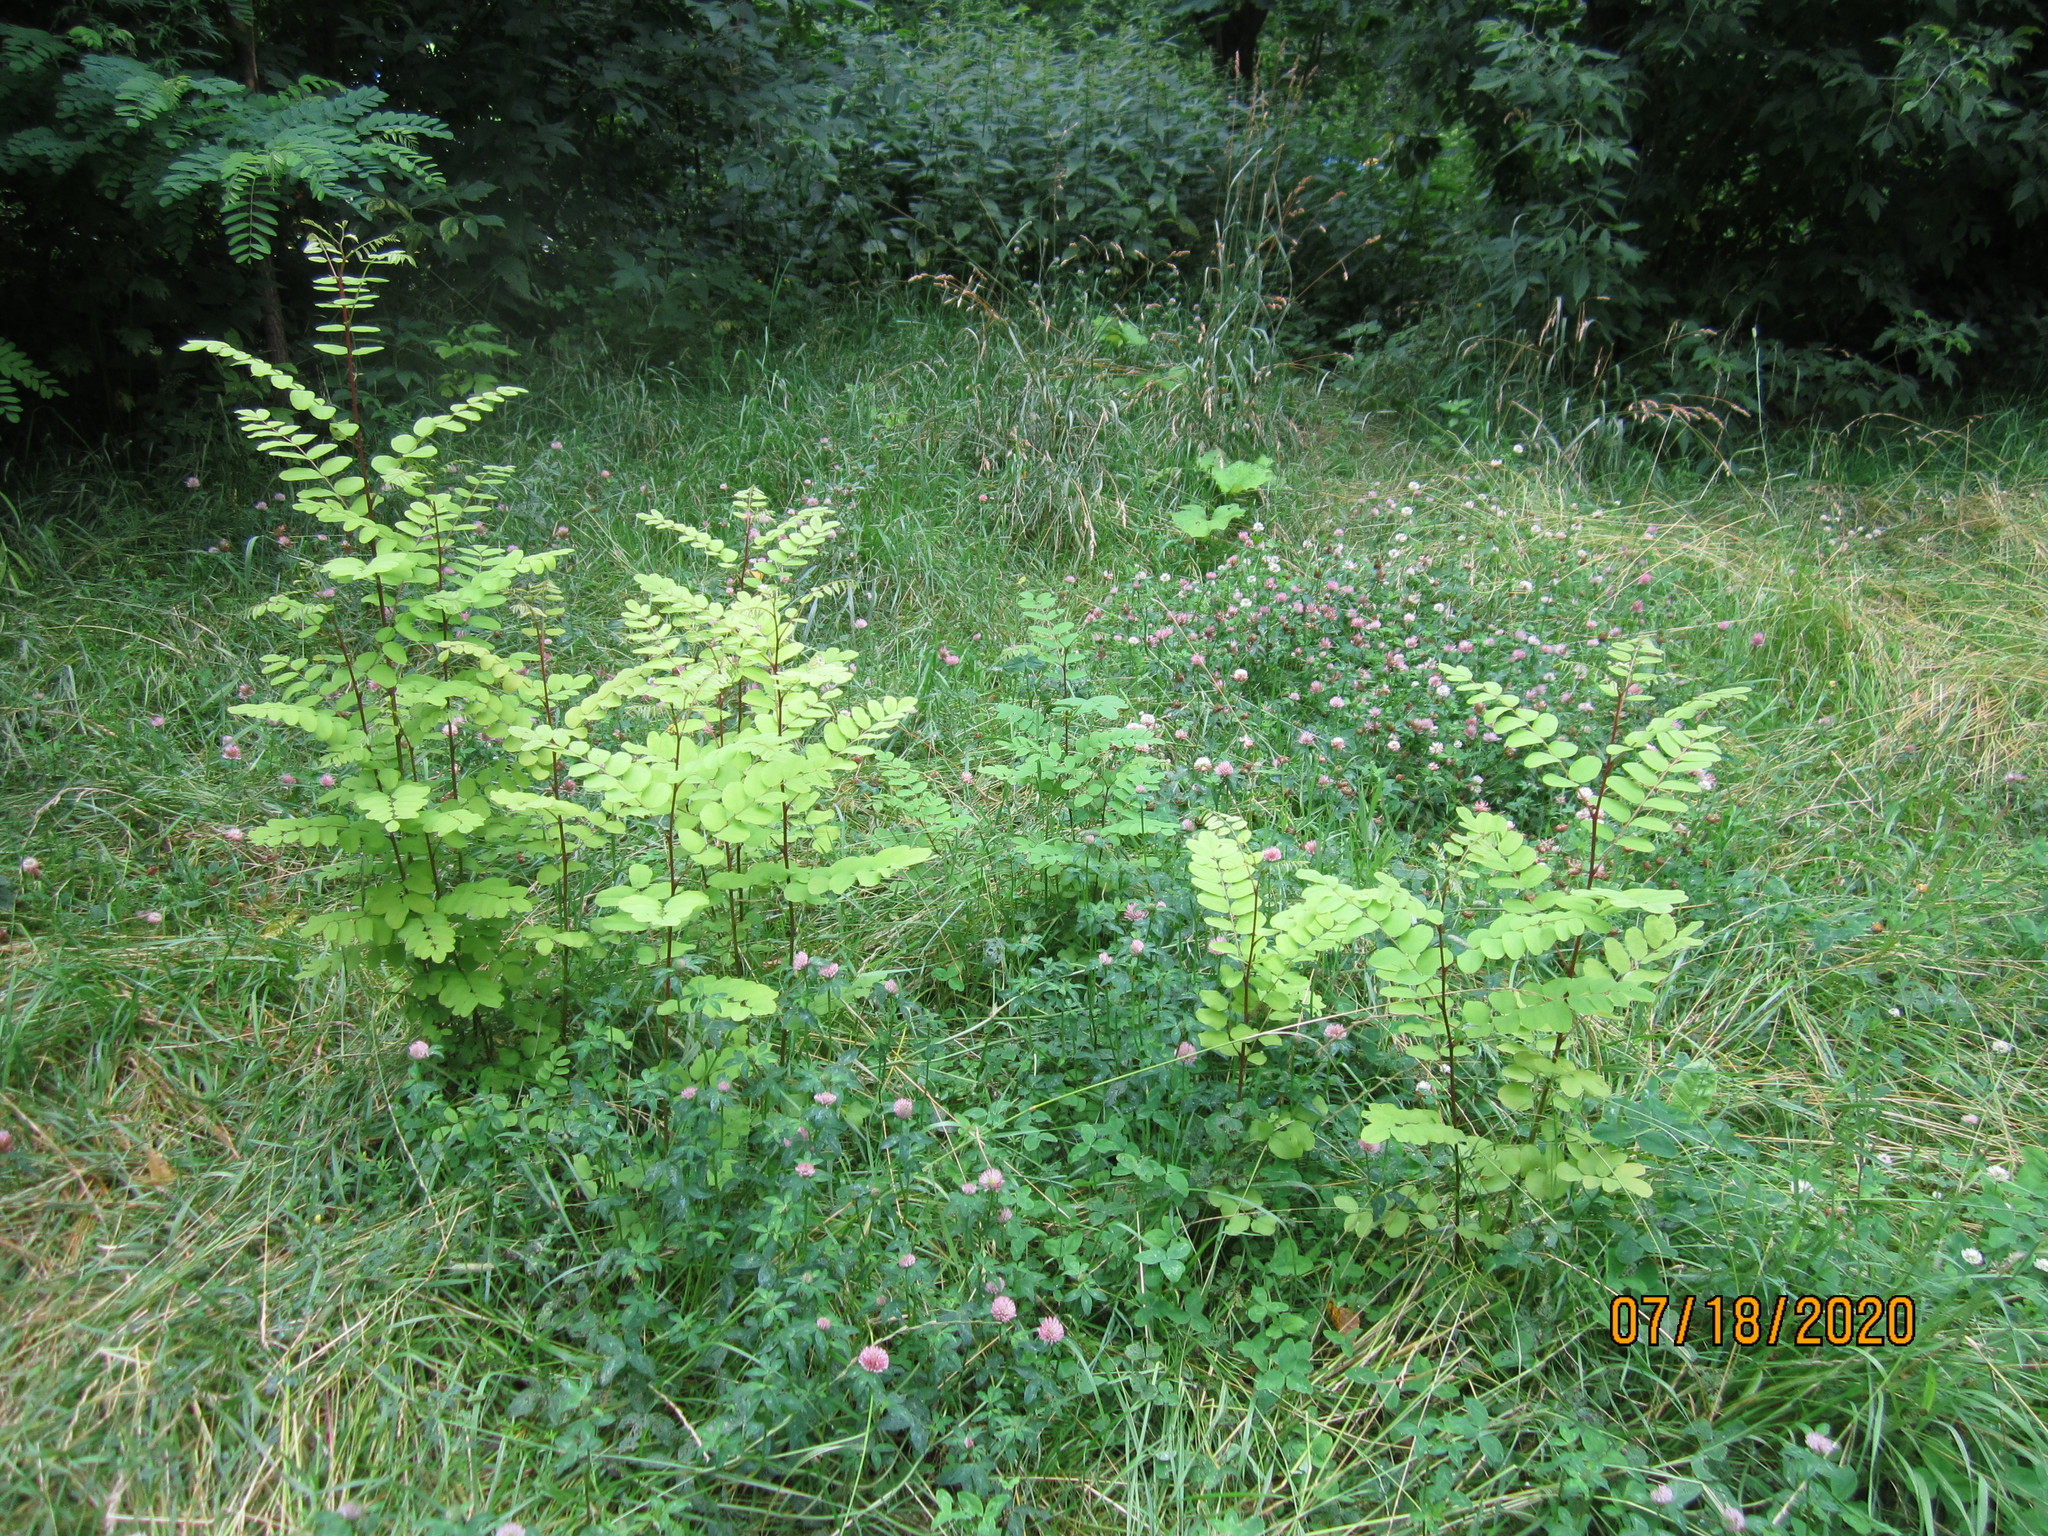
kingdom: Plantae
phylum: Tracheophyta
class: Magnoliopsida
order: Fabales
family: Fabaceae
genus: Robinia
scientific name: Robinia pseudoacacia
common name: Black locust
